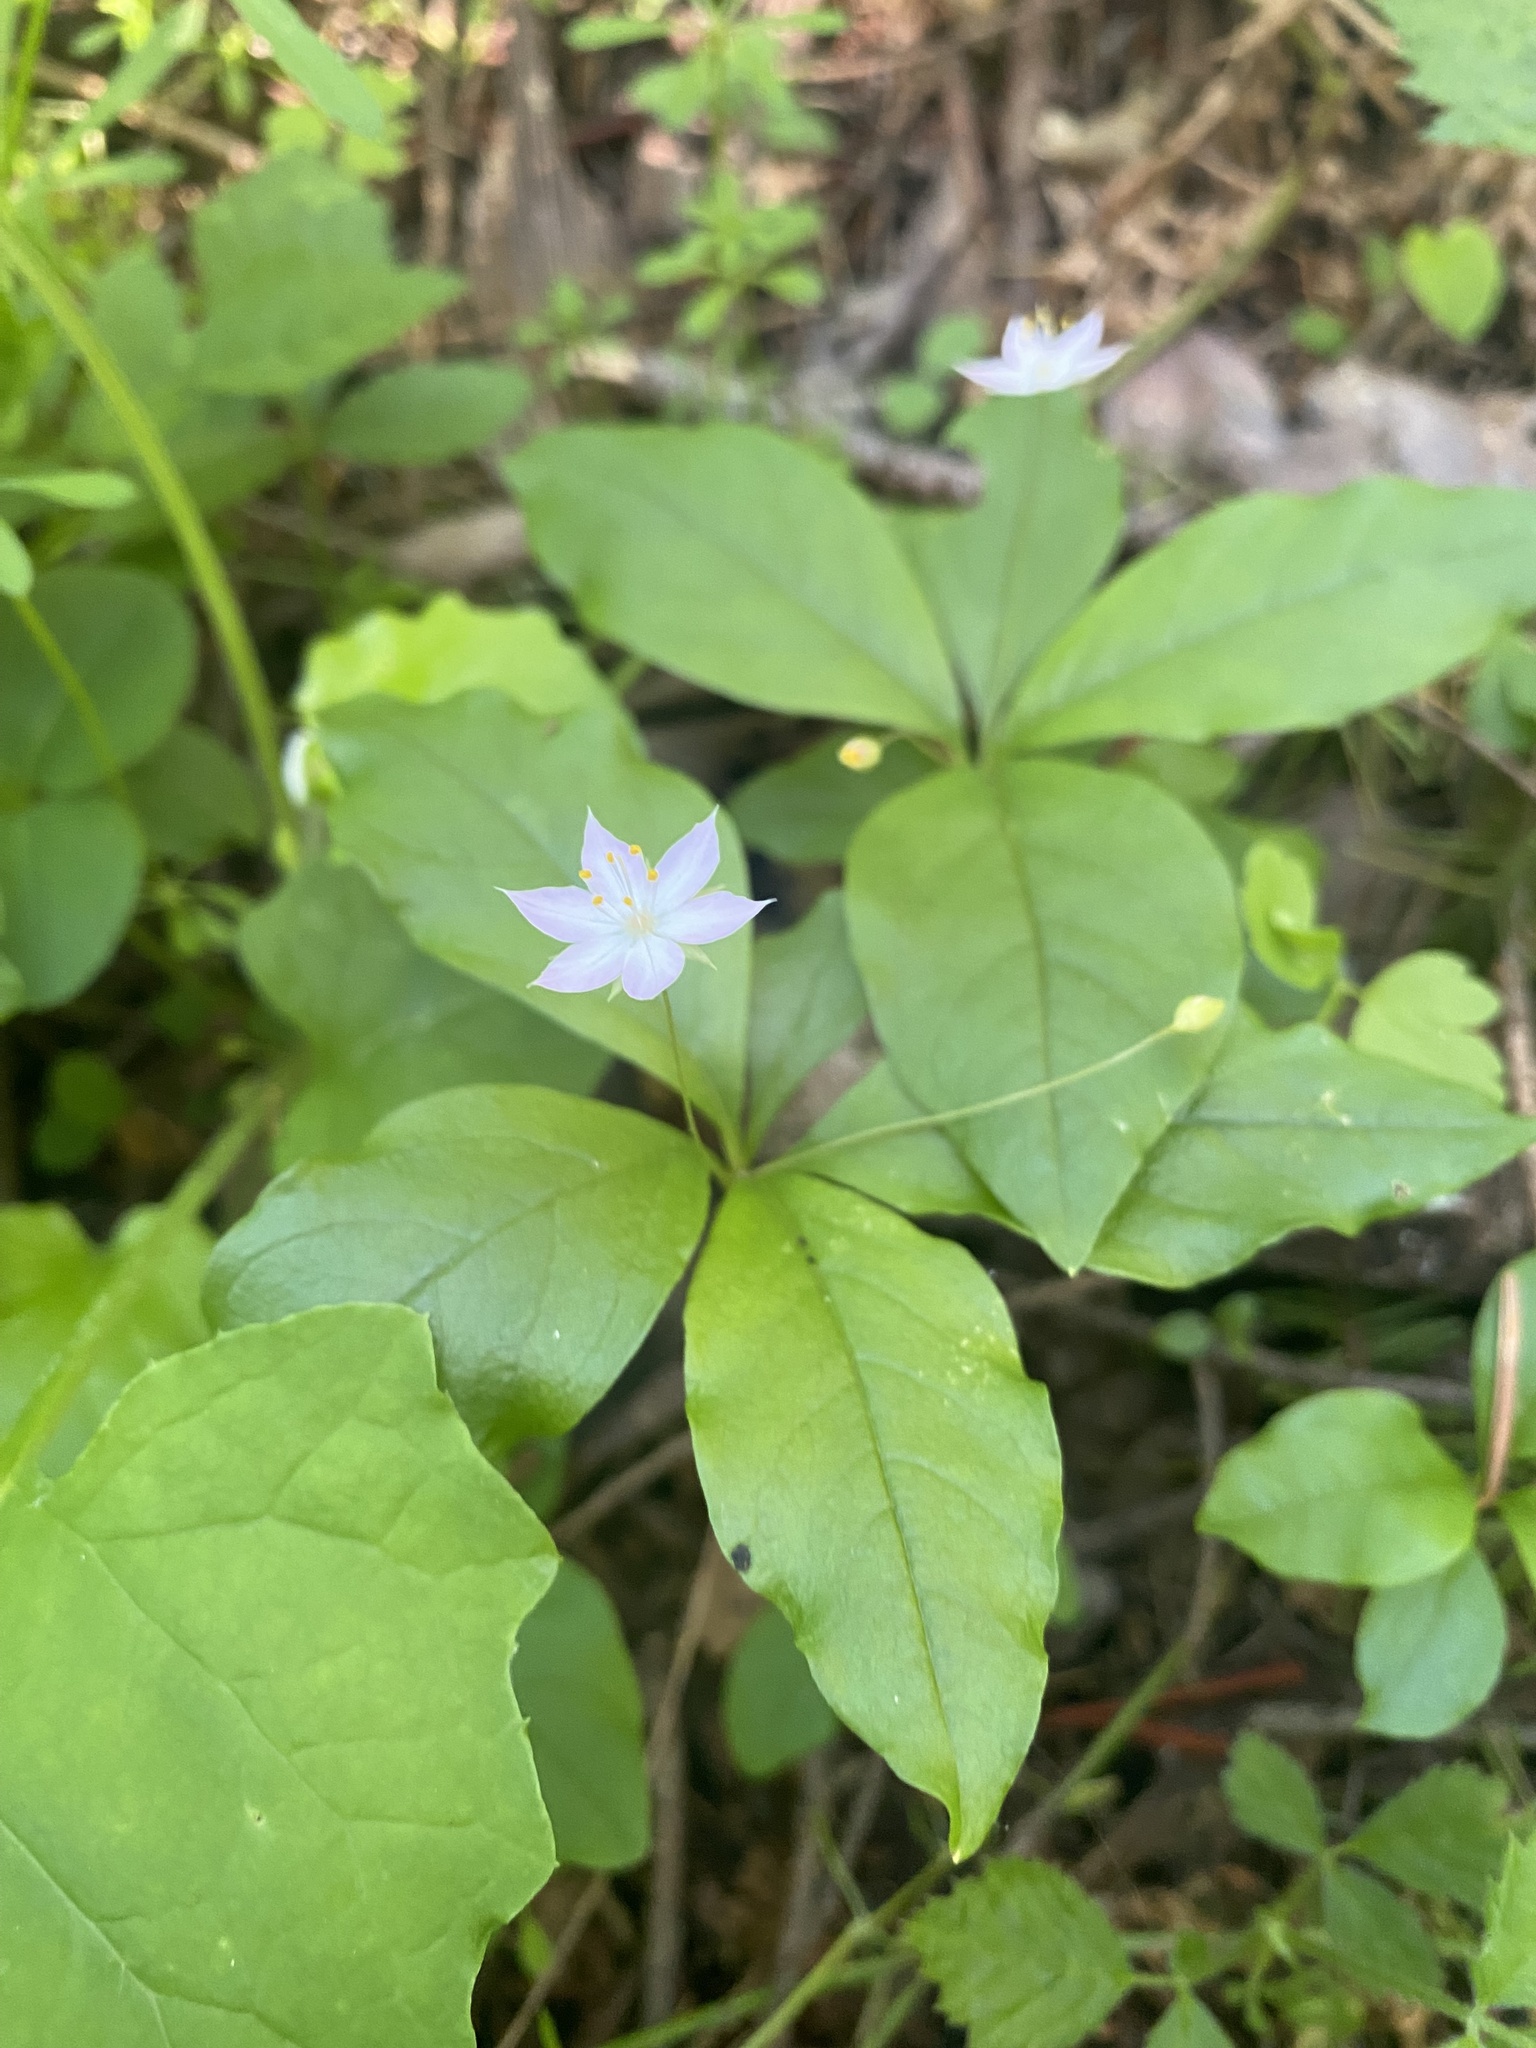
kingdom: Plantae
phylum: Tracheophyta
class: Magnoliopsida
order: Ericales
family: Primulaceae
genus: Lysimachia
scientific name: Lysimachia latifolia
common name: Pacific starflower
